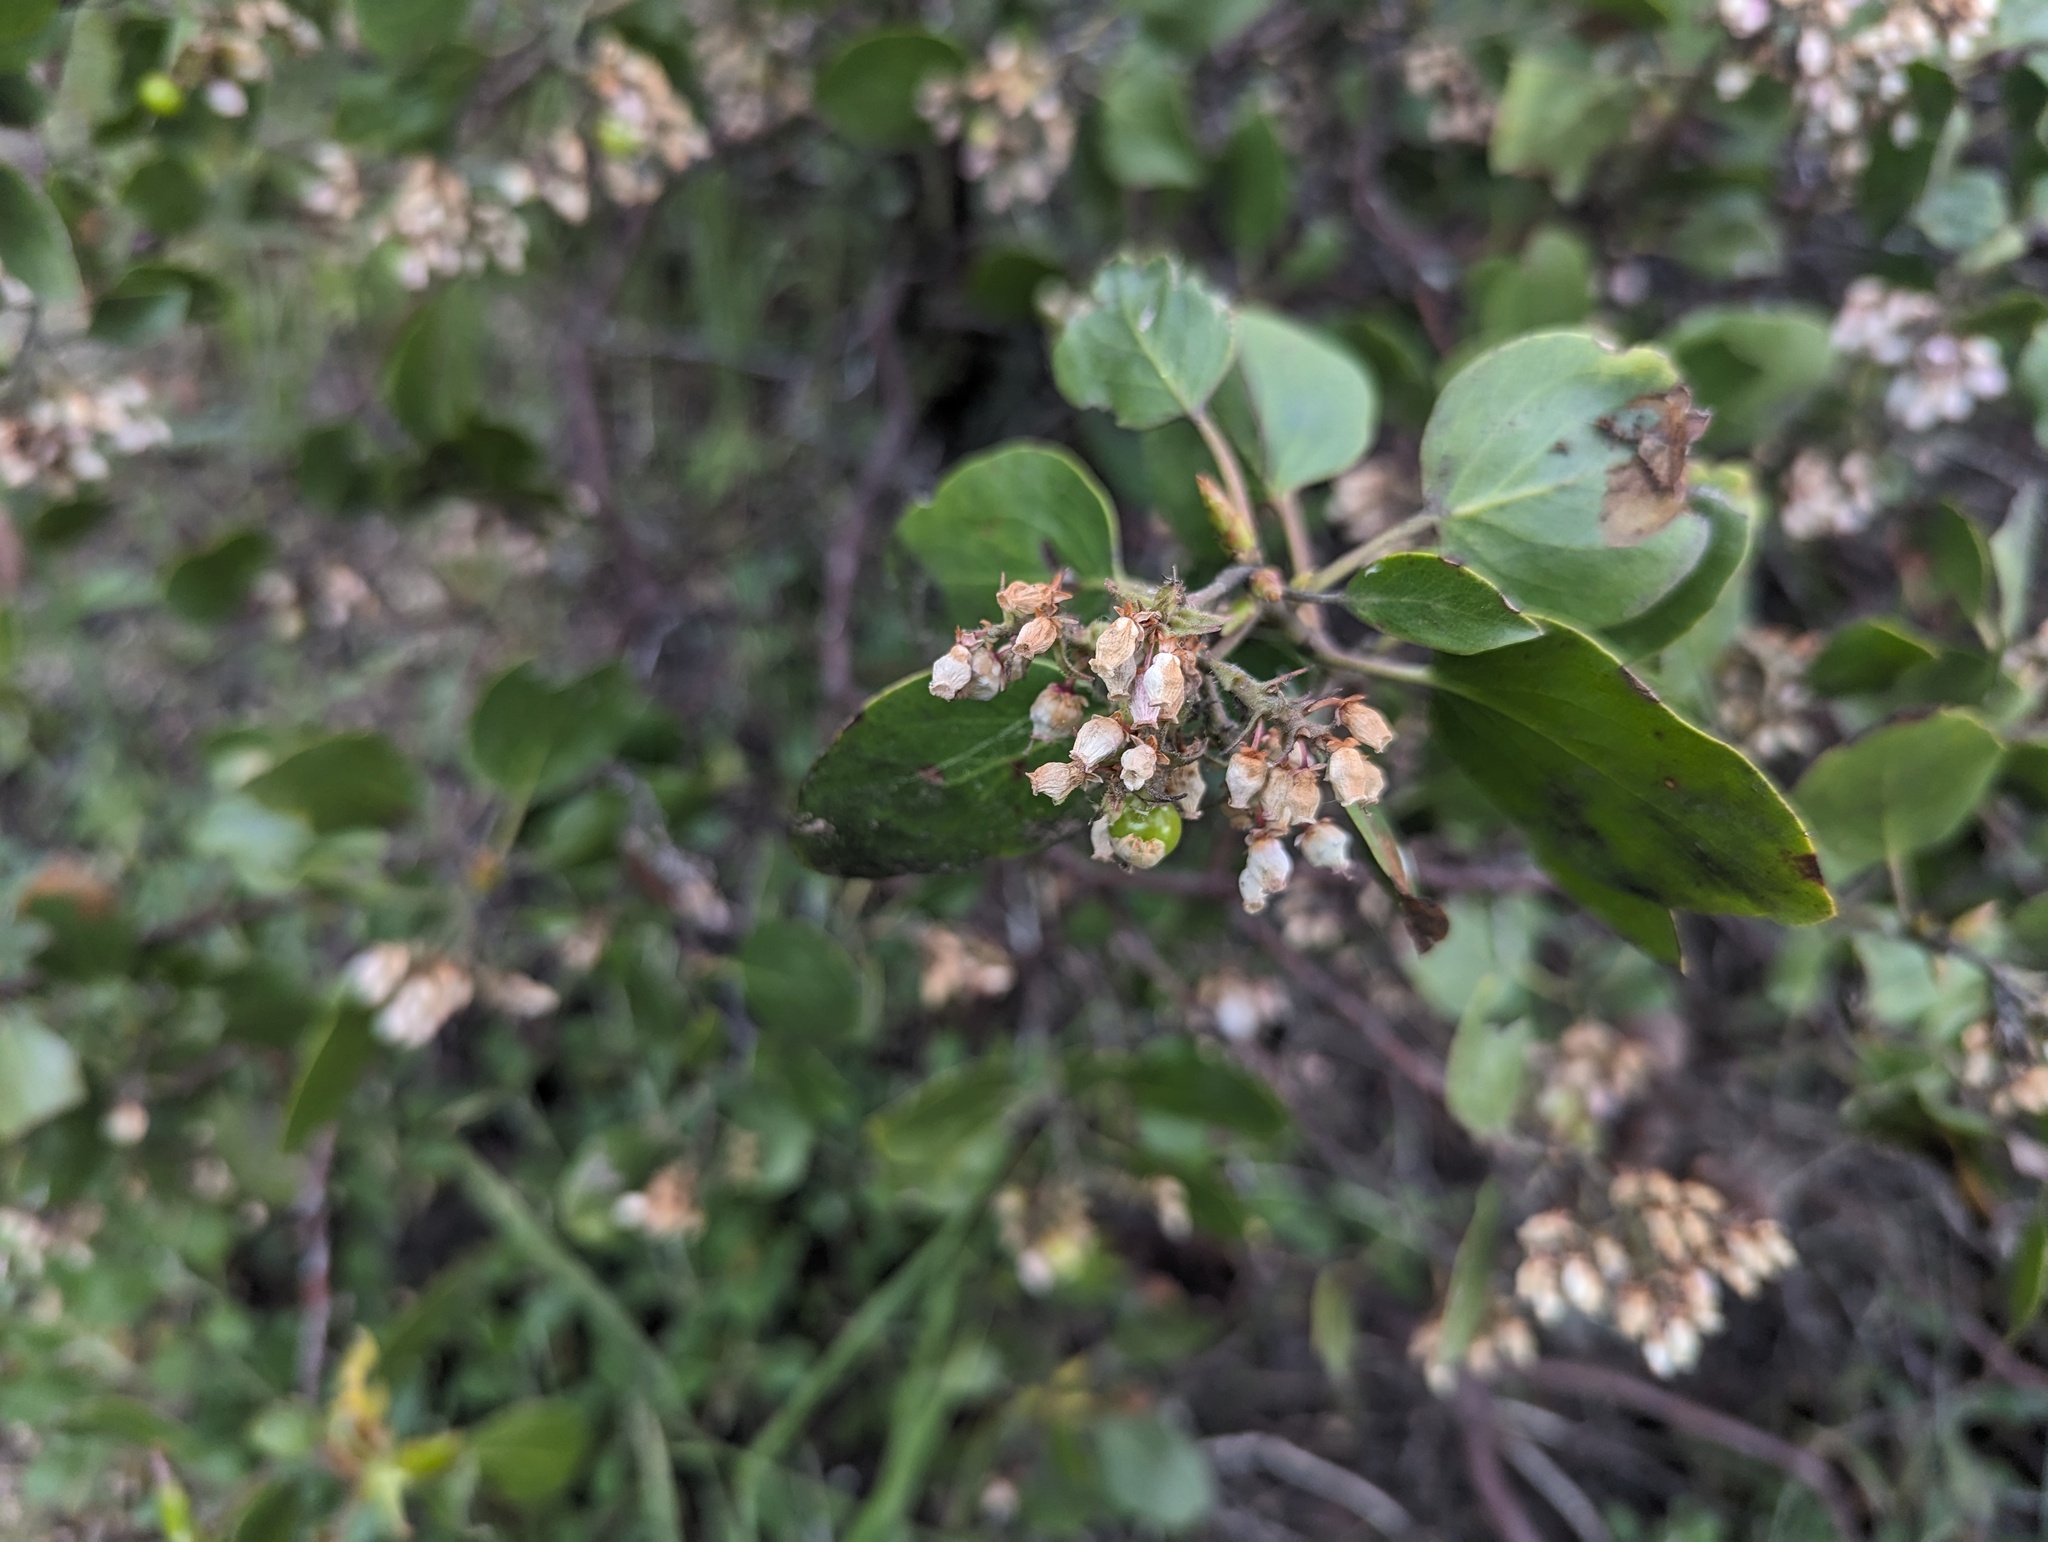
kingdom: Plantae
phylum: Tracheophyta
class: Magnoliopsida
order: Ericales
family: Ericaceae
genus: Arctostaphylos
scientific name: Arctostaphylos patula
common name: Green-leaf manzanita
